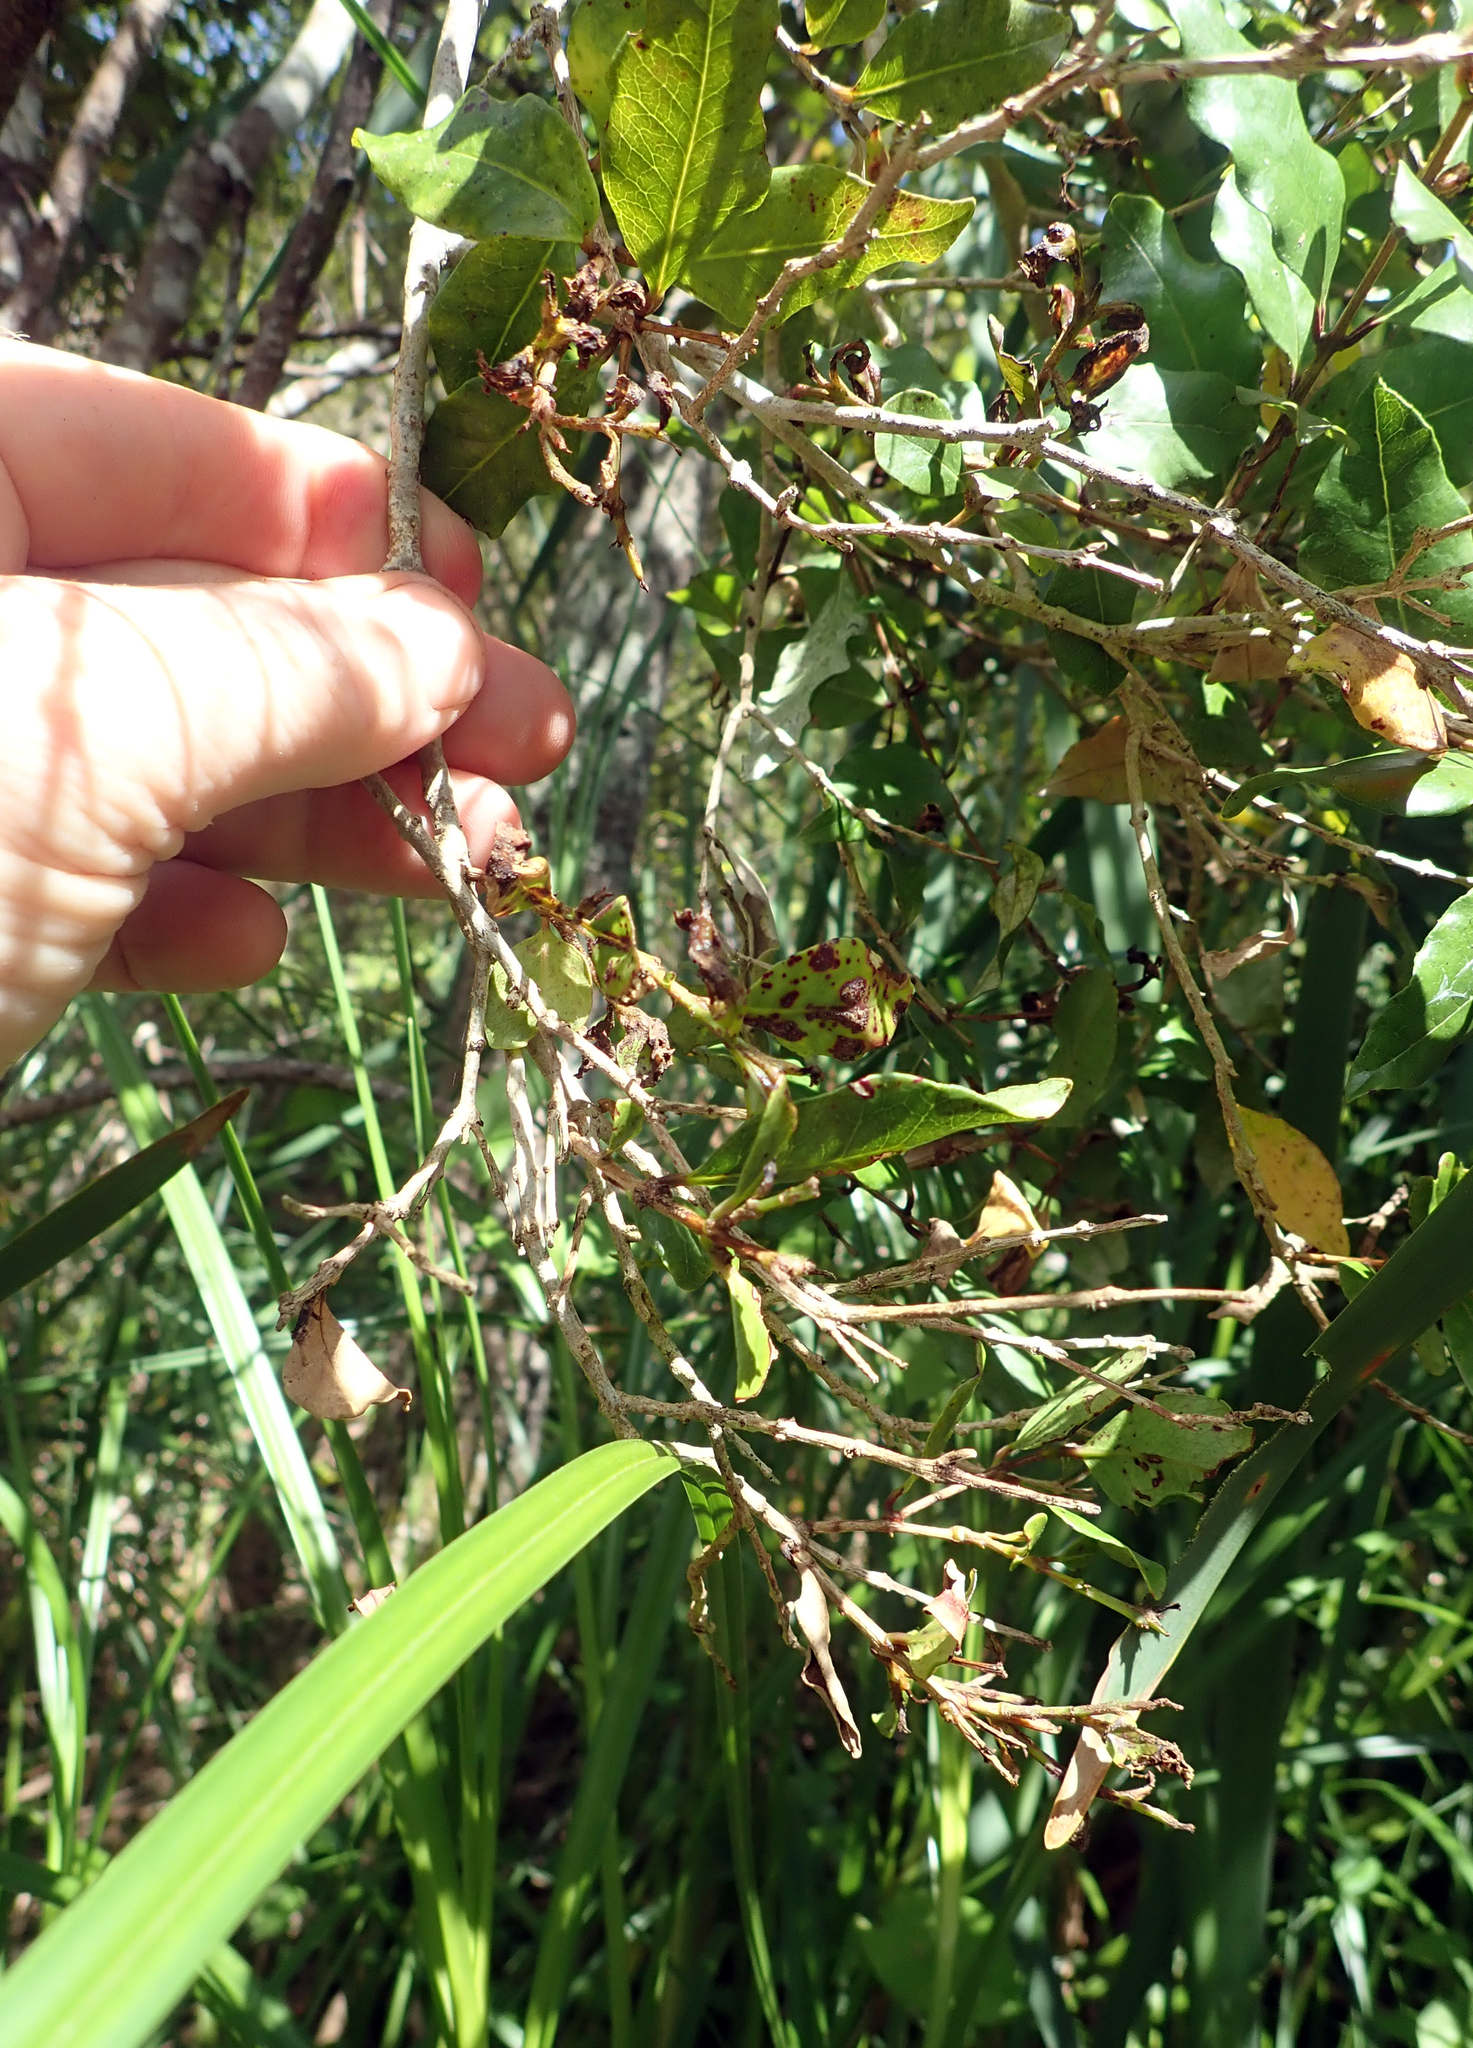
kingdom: Fungi
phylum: Basidiomycota
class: Pucciniomycetes
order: Pucciniales
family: Sphaerophragmiaceae
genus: Austropuccinia
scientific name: Austropuccinia psidii
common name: Myrtle rust
